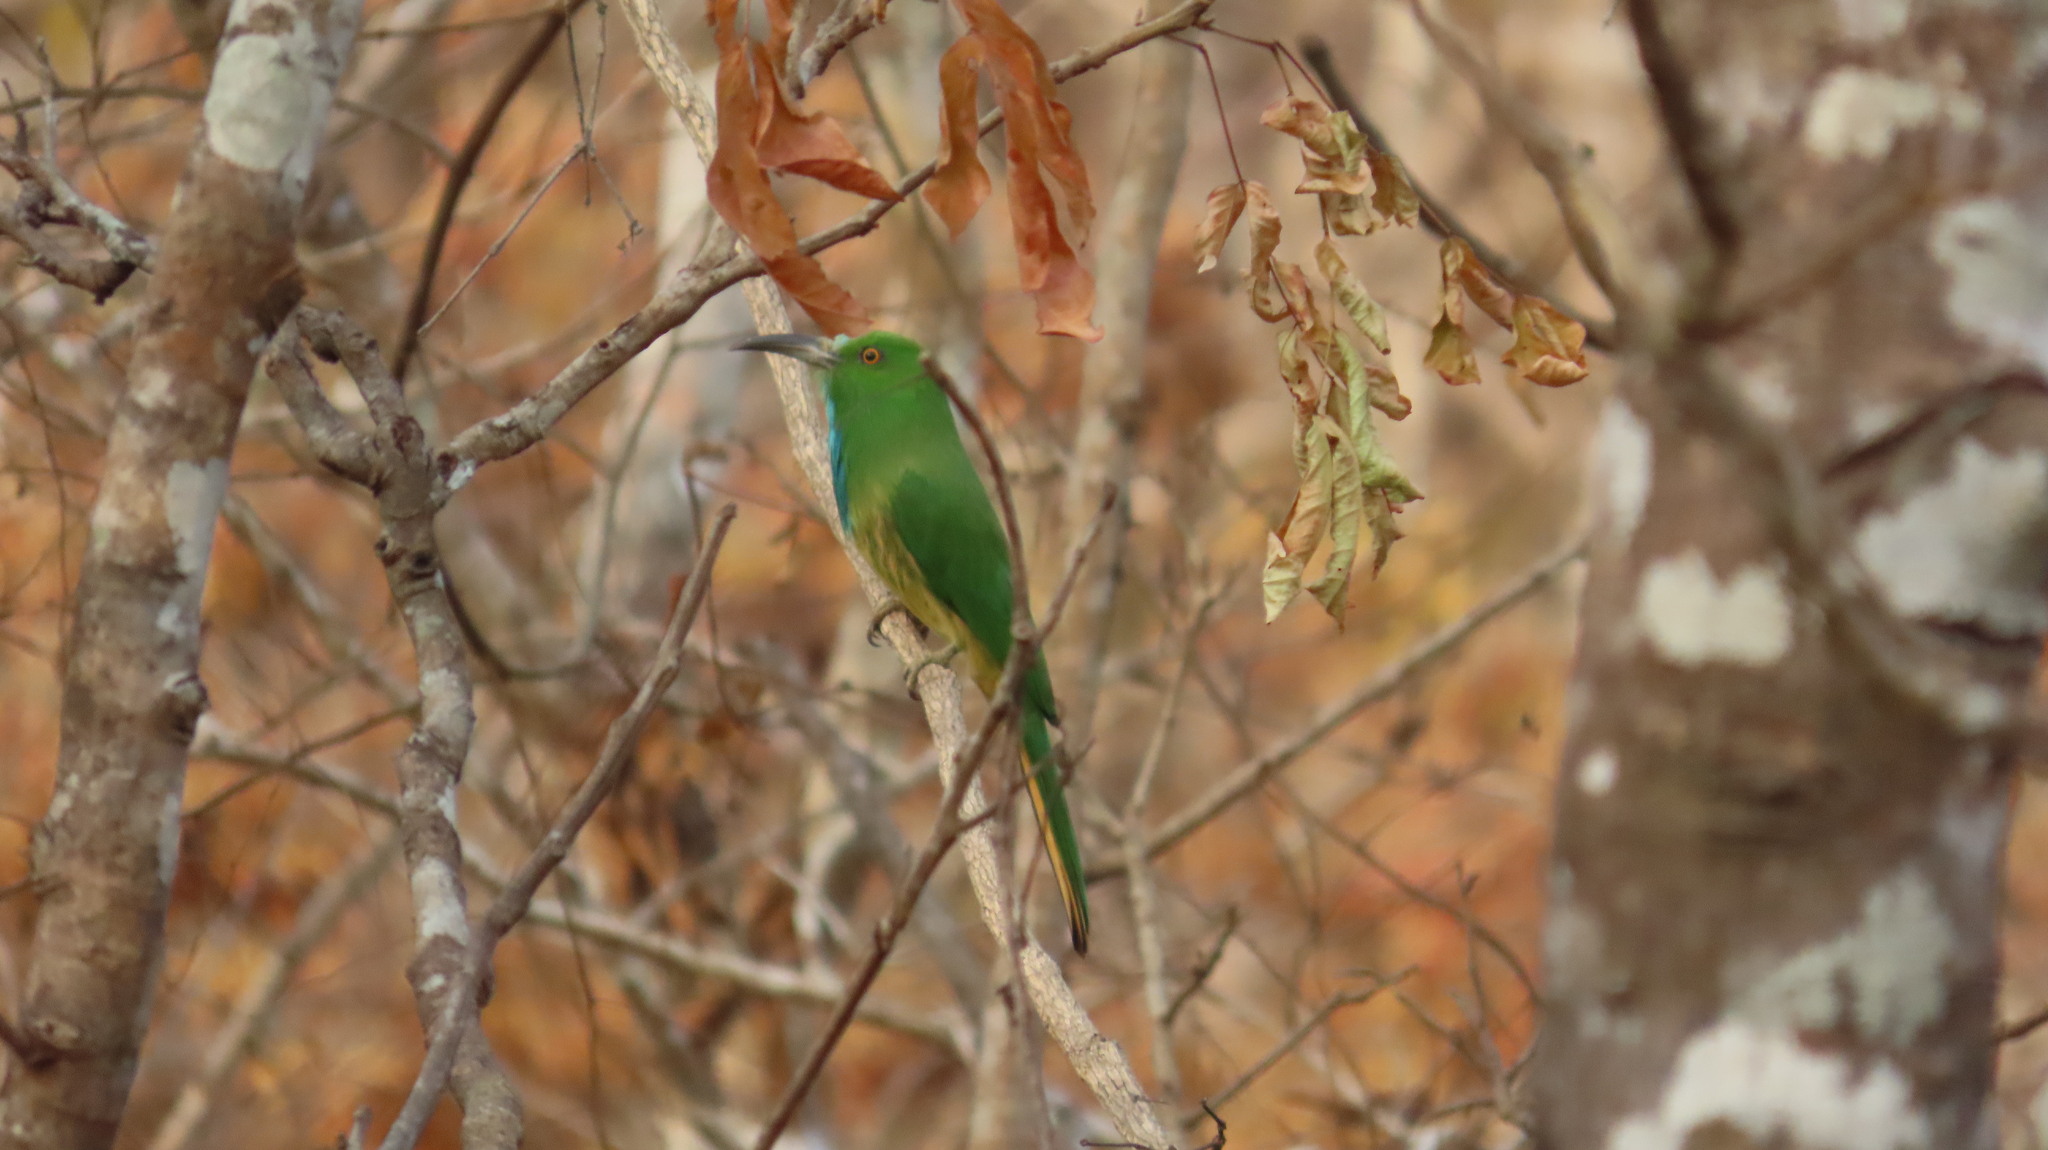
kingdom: Animalia
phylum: Chordata
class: Aves
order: Coraciiformes
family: Meropidae
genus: Nyctyornis
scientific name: Nyctyornis athertoni
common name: Blue-bearded bee-eater
